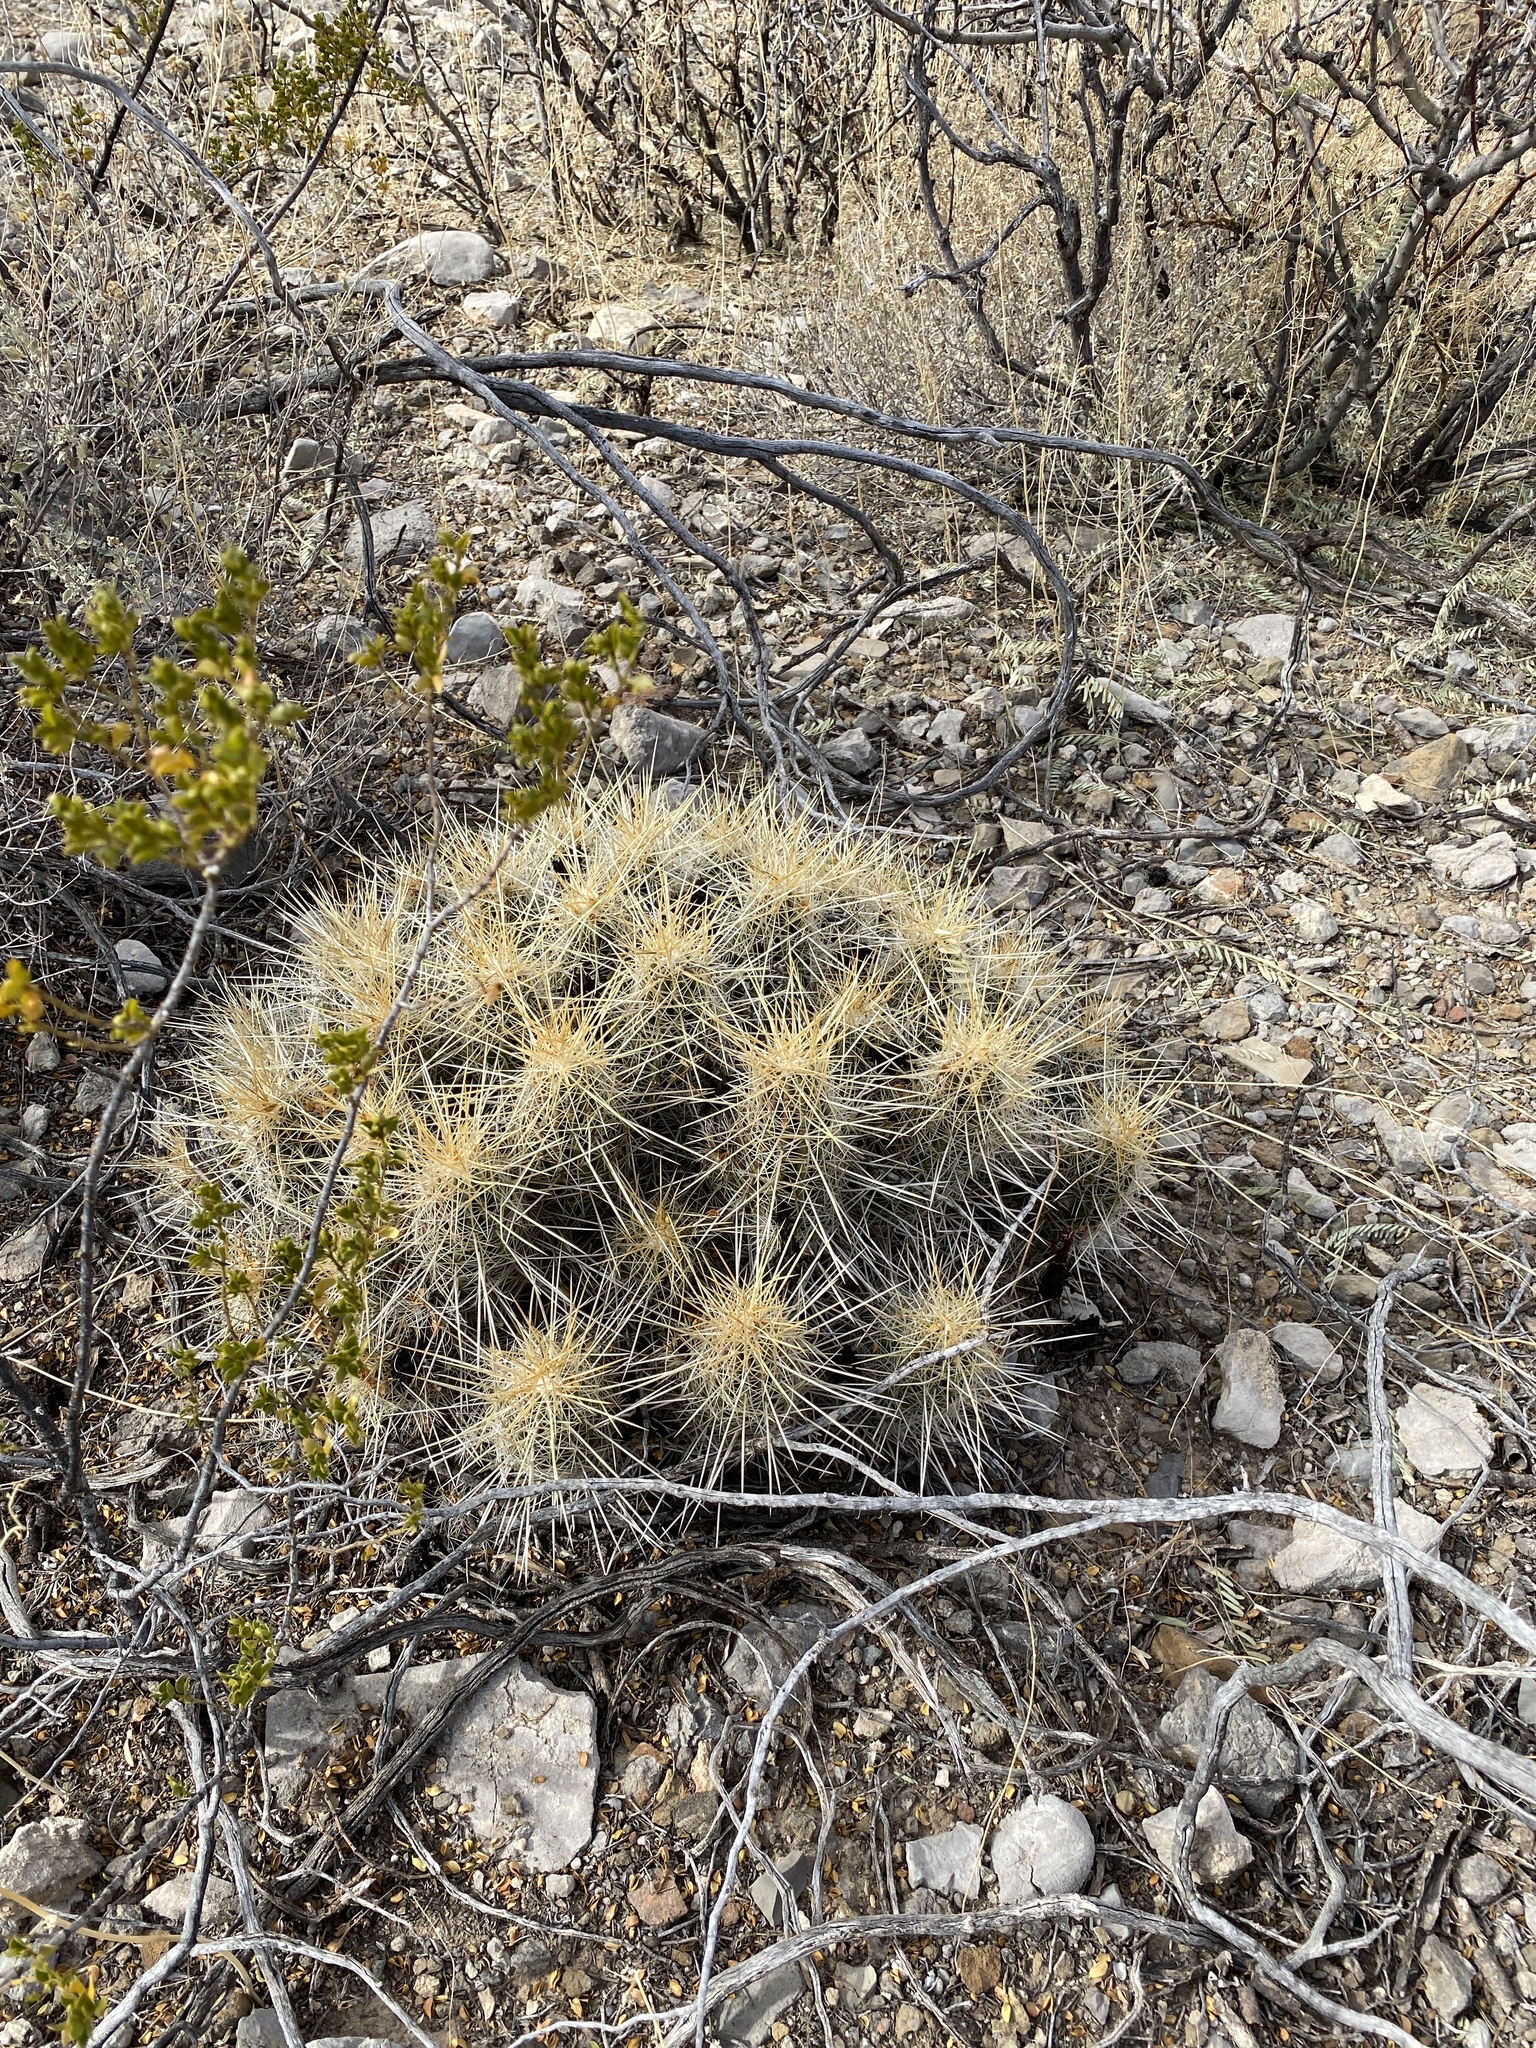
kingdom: Plantae
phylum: Tracheophyta
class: Magnoliopsida
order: Caryophyllales
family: Cactaceae
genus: Echinocereus
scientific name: Echinocereus stramineus
